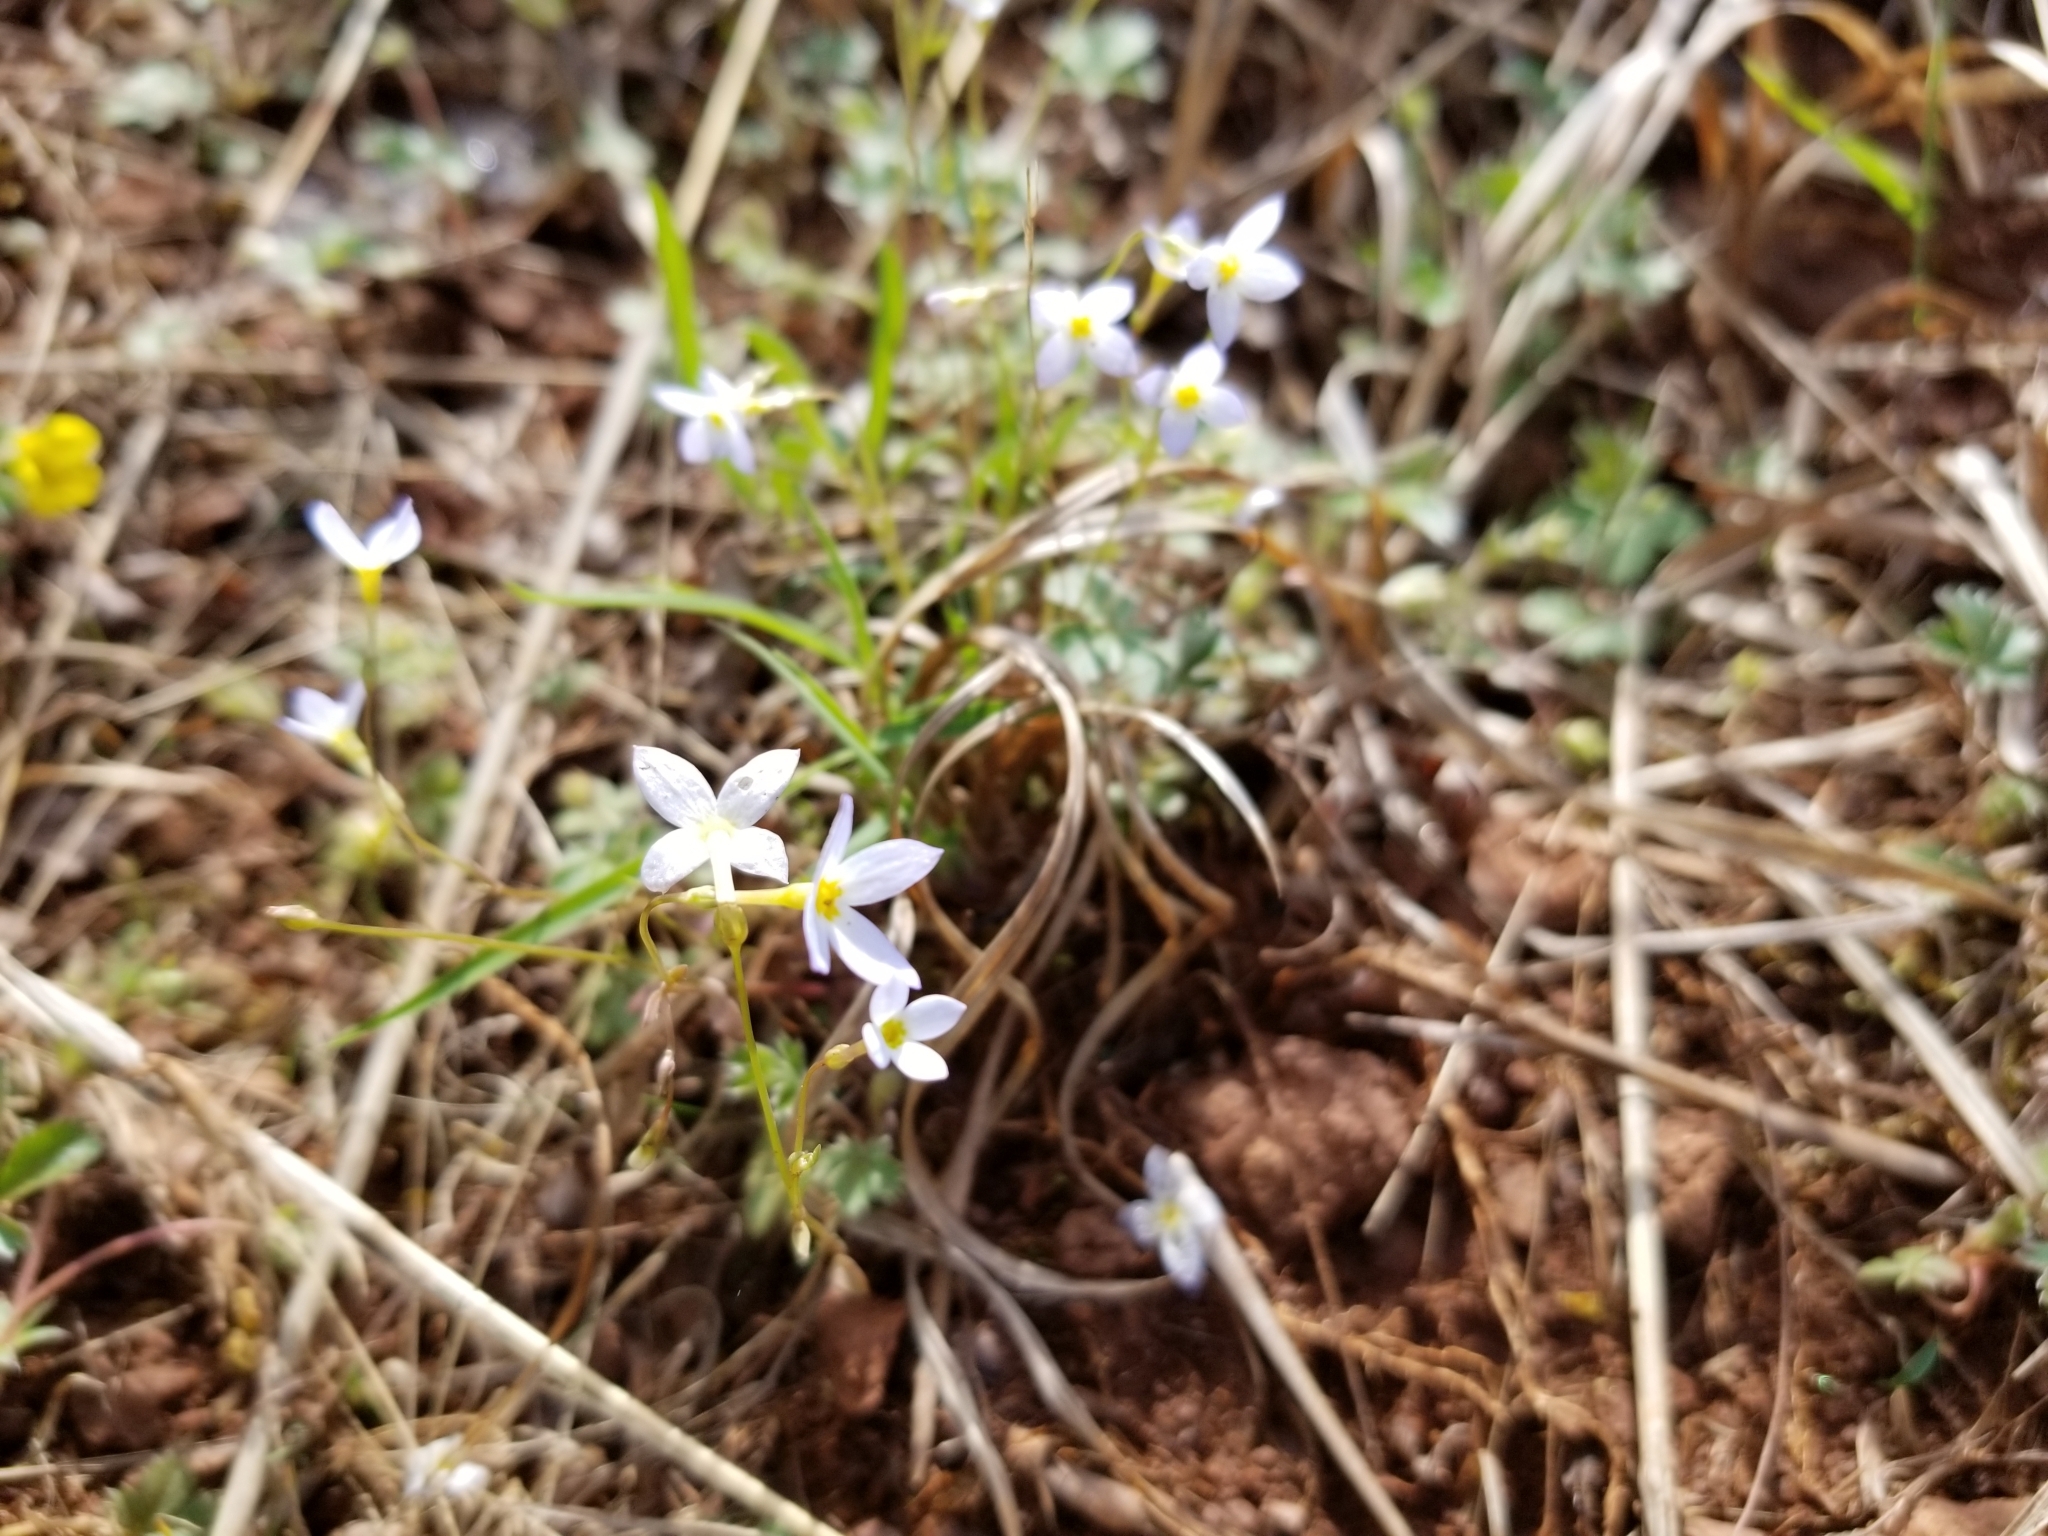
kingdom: Plantae
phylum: Tracheophyta
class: Magnoliopsida
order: Gentianales
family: Rubiaceae
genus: Houstonia
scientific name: Houstonia caerulea
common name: Bluets
